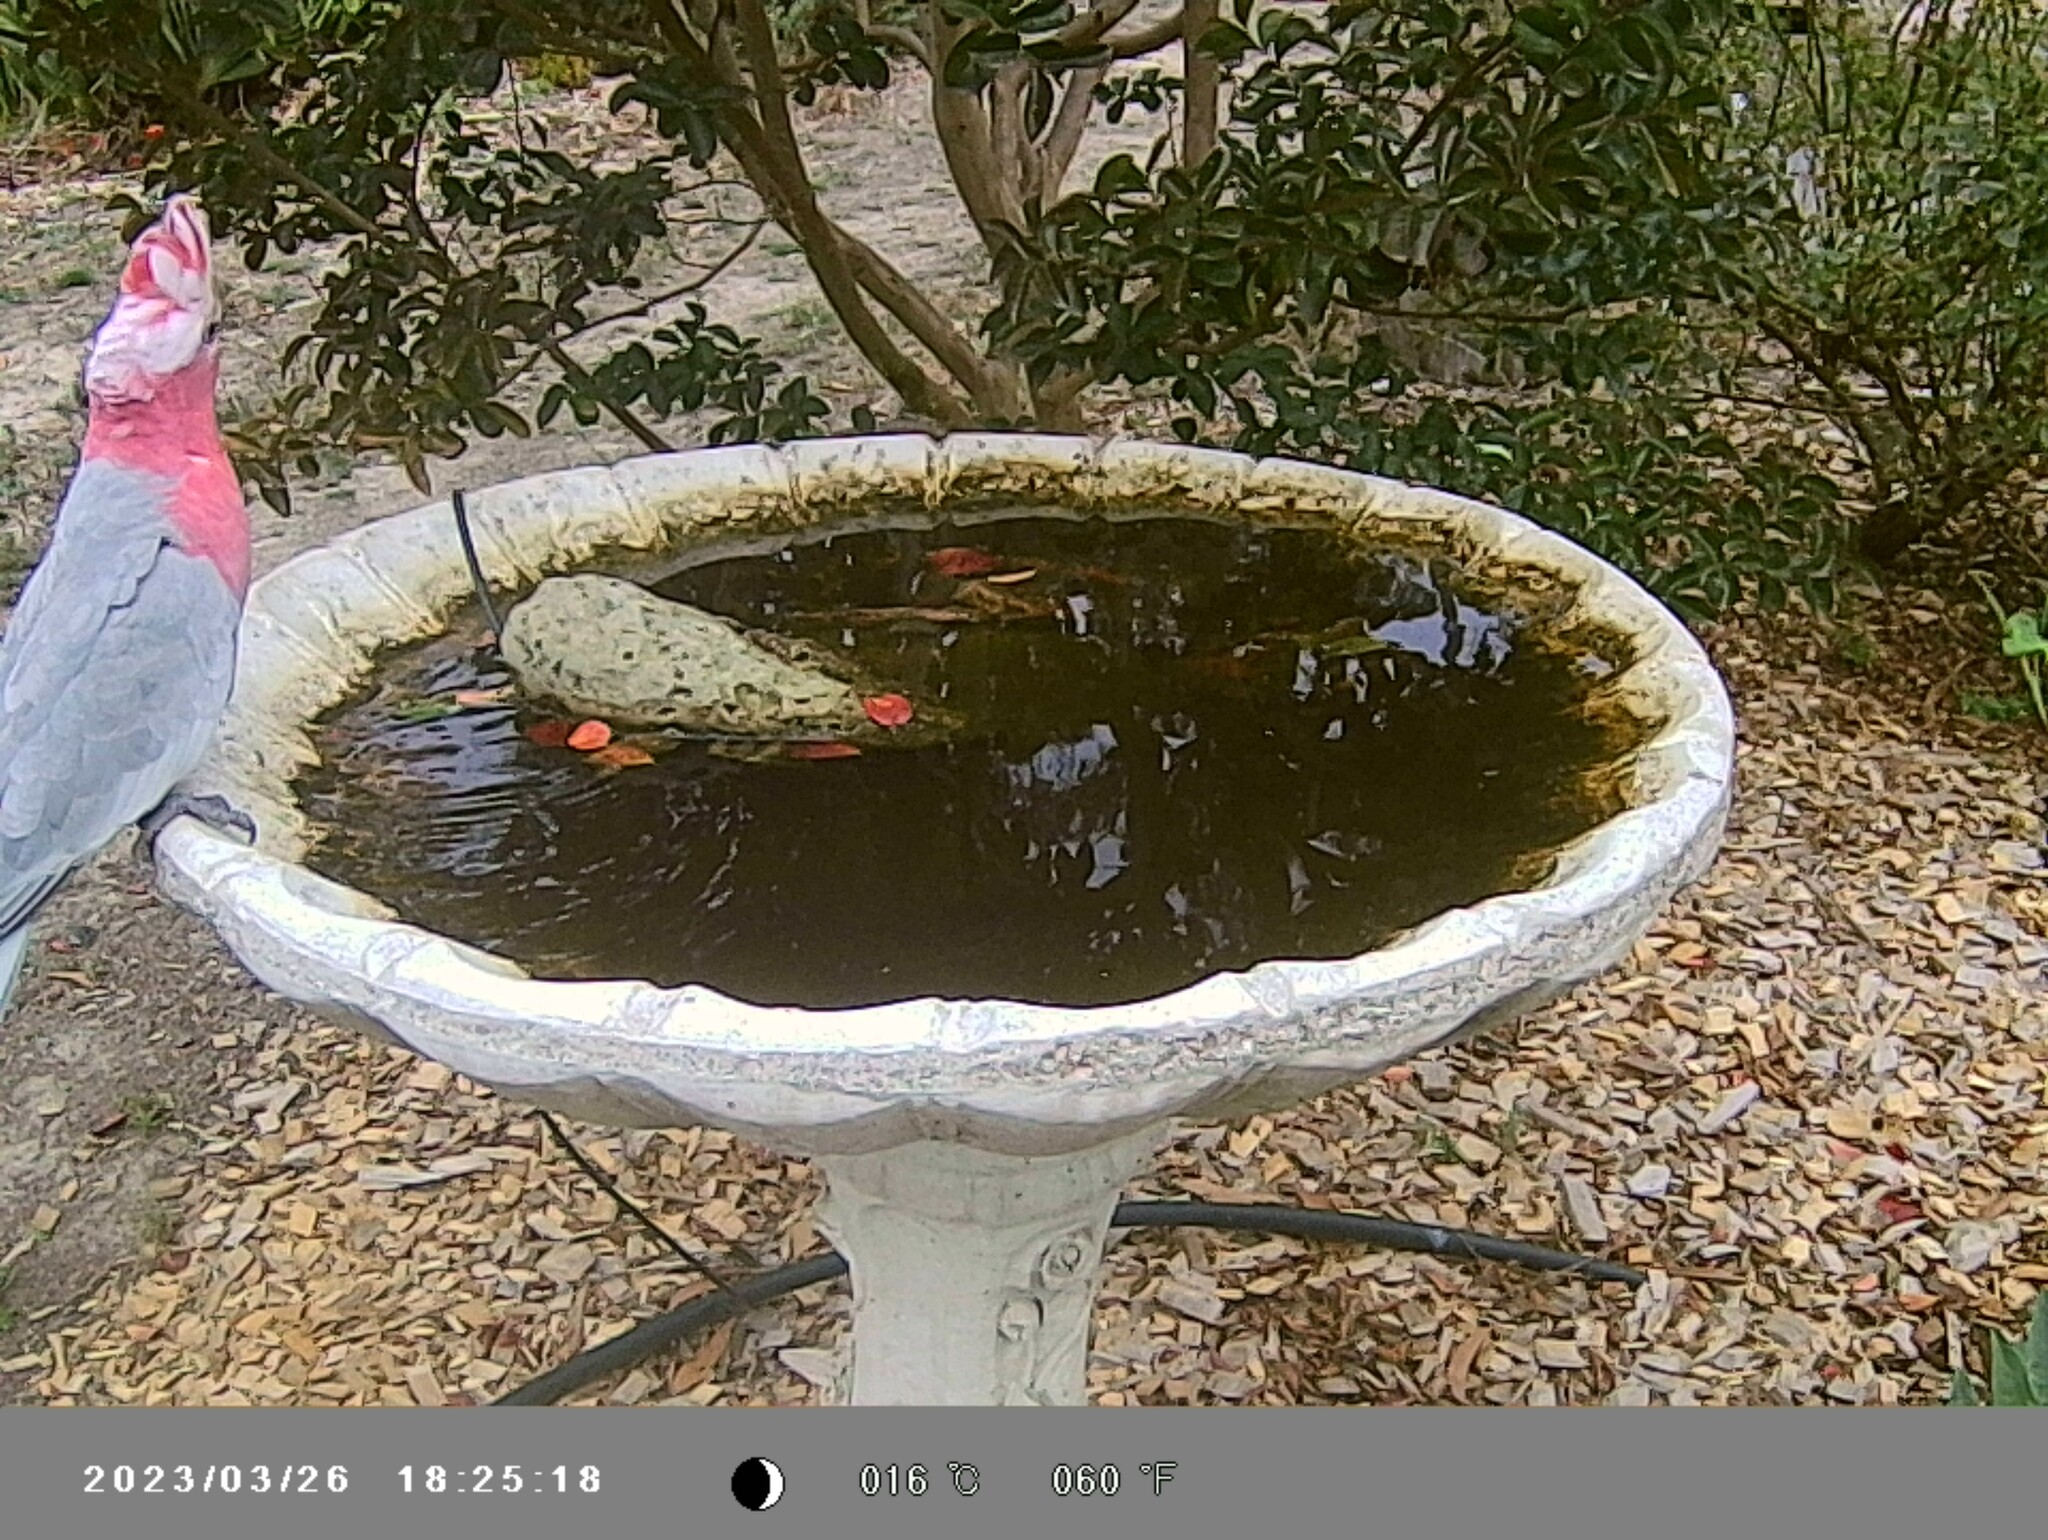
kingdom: Animalia
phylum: Chordata
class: Aves
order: Psittaciformes
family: Psittacidae
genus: Eolophus
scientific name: Eolophus roseicapilla
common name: Galah
